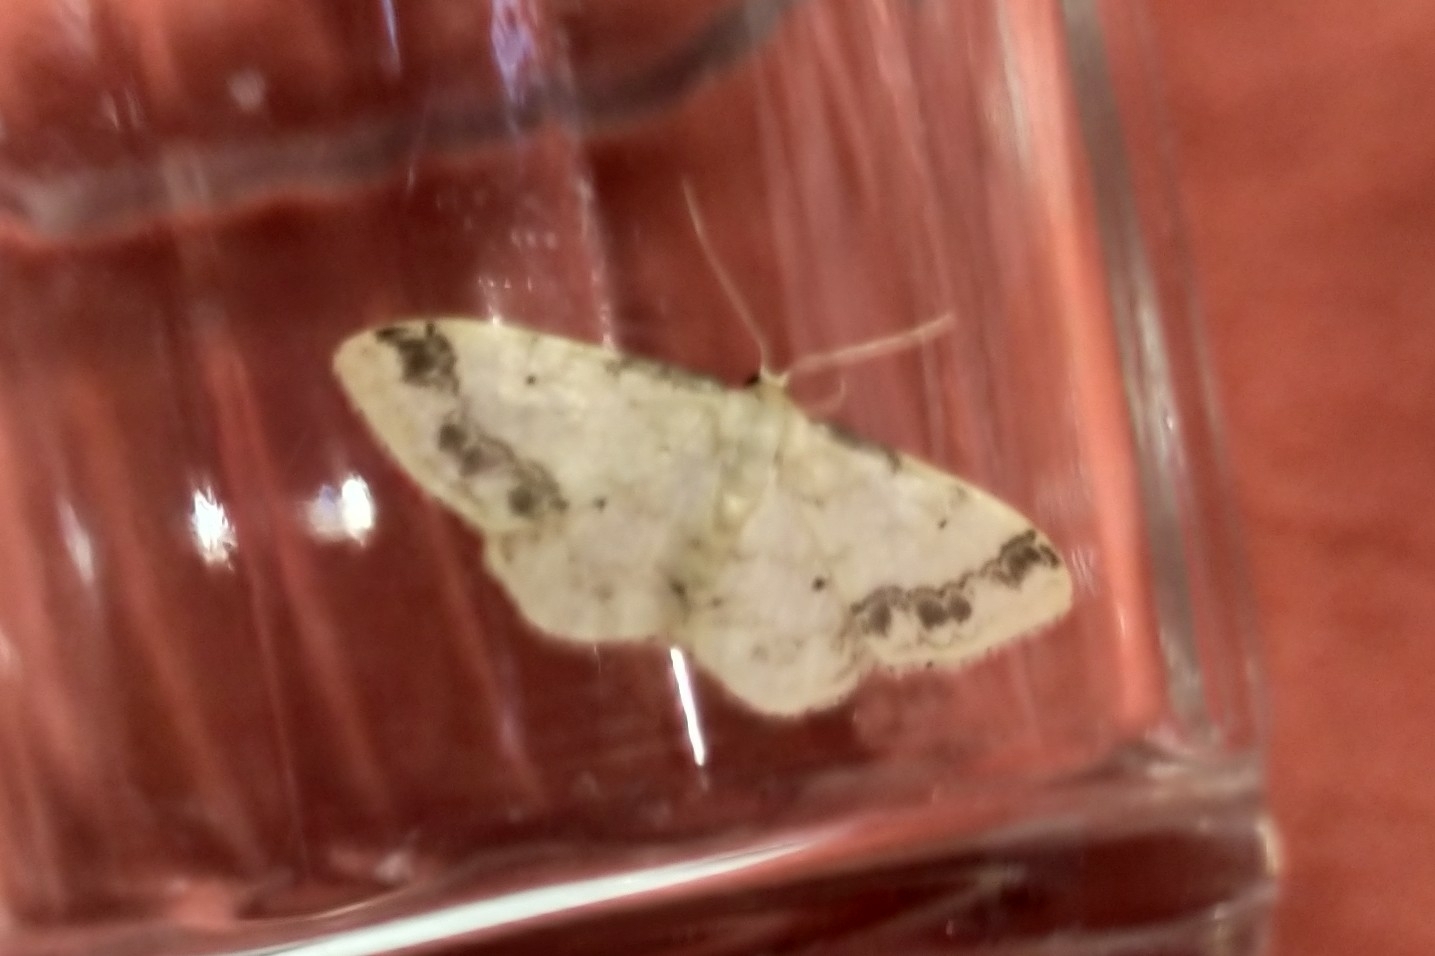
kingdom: Animalia
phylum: Arthropoda
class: Insecta
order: Lepidoptera
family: Geometridae
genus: Idaea
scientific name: Idaea trigeminata
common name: Treble brown spot
